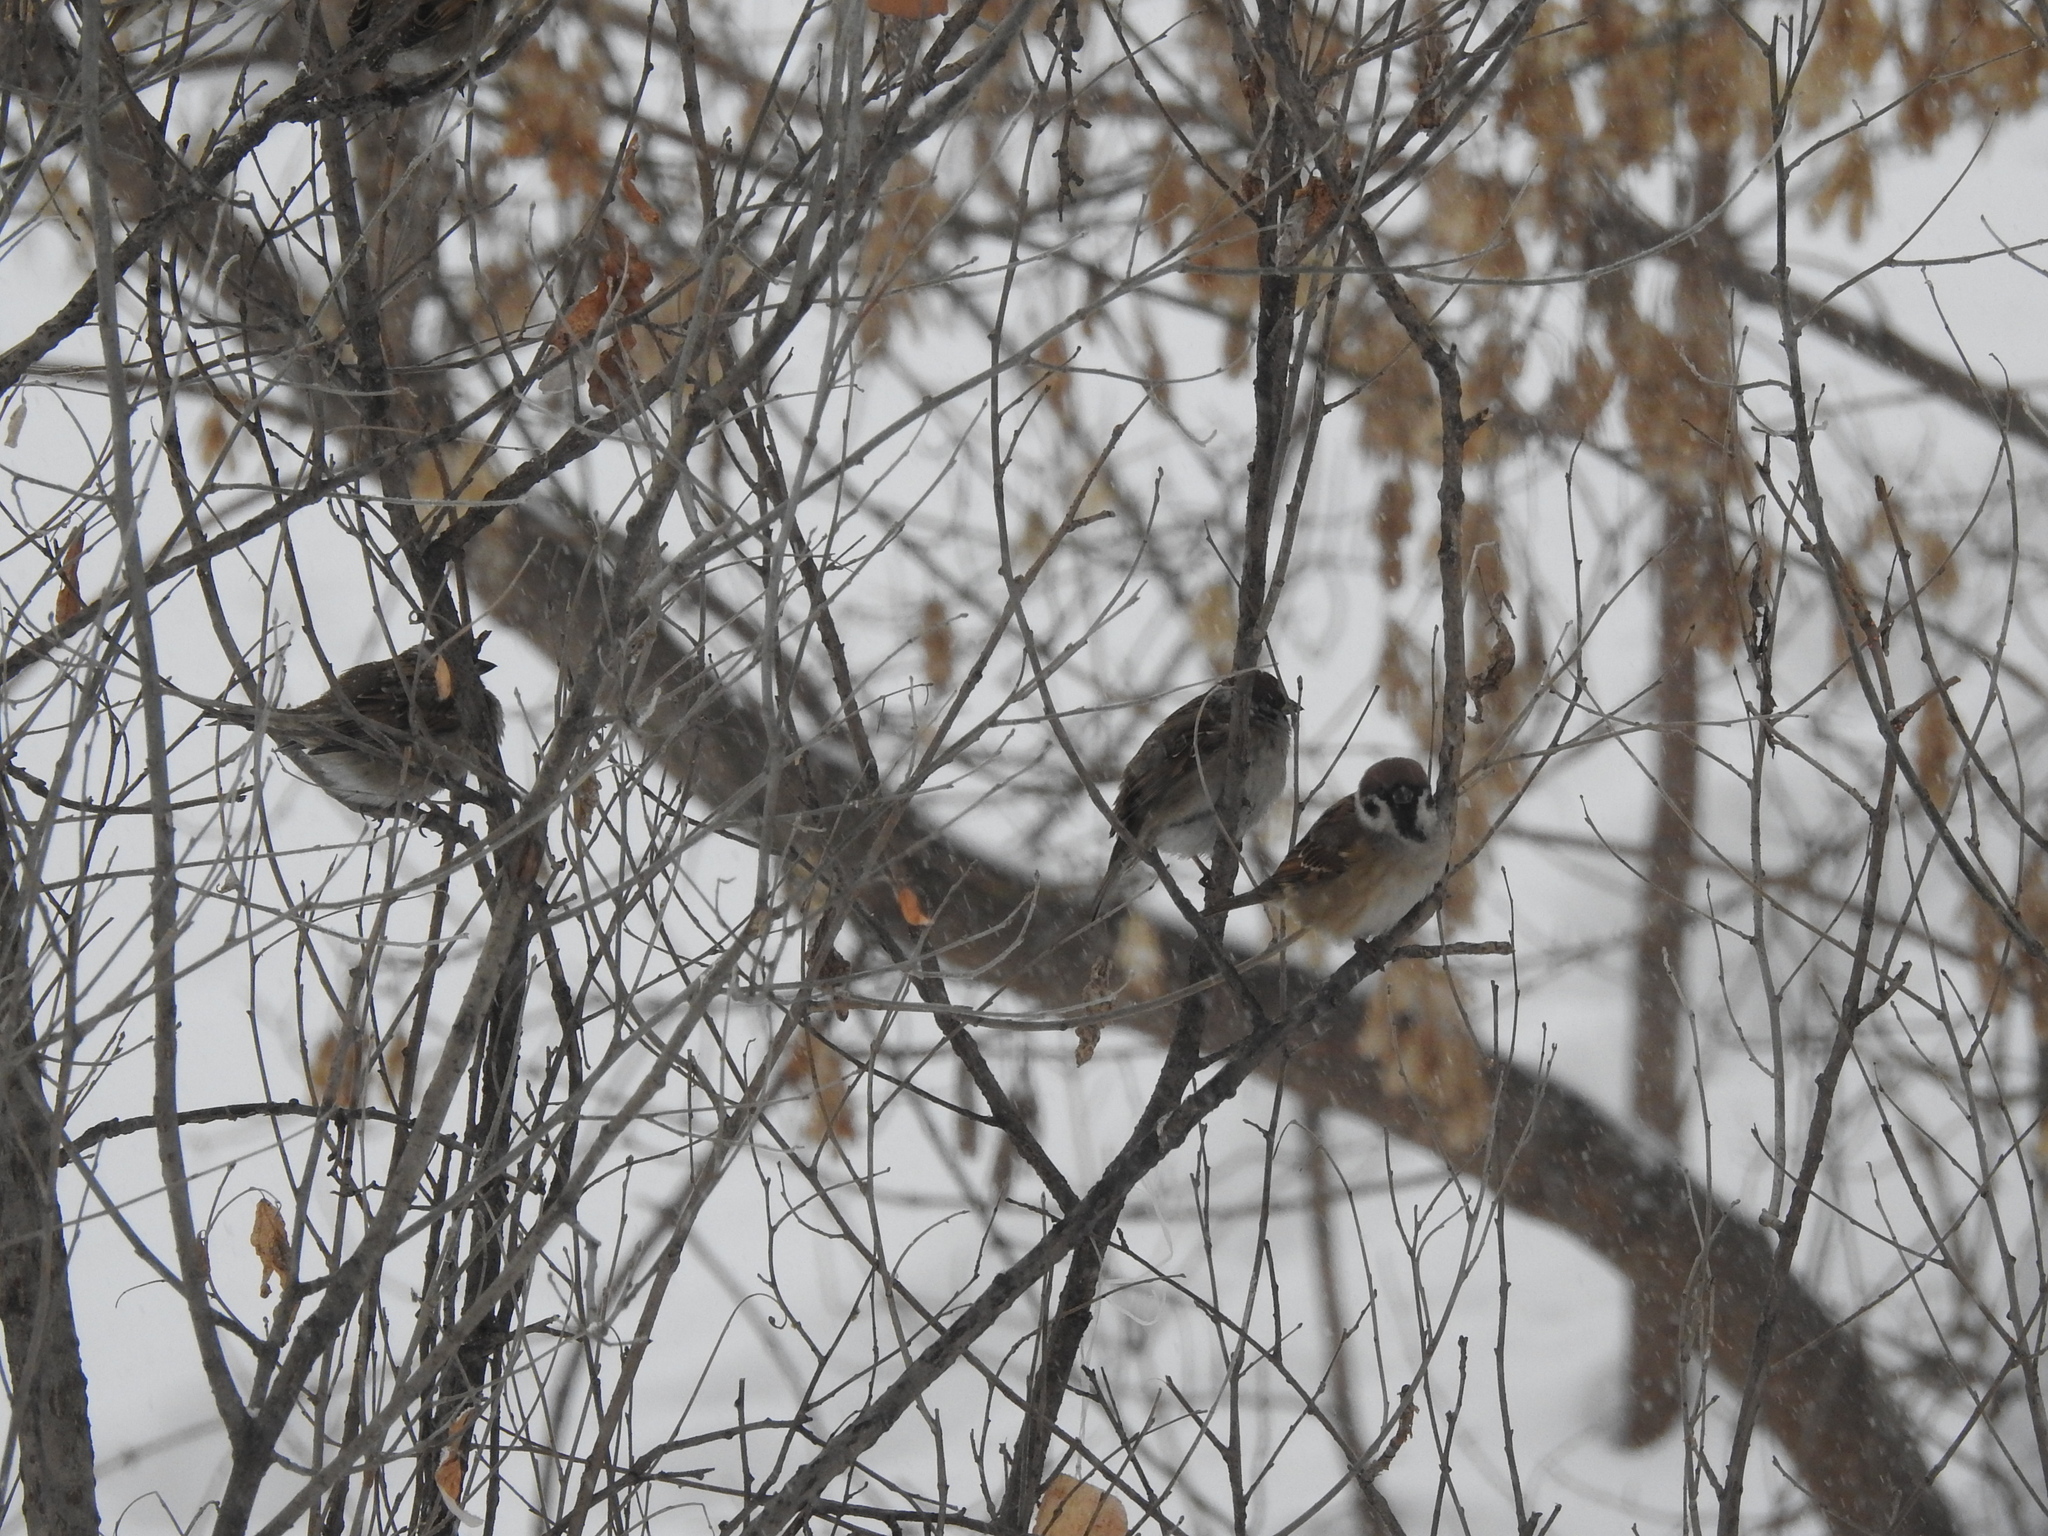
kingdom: Animalia
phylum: Chordata
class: Aves
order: Passeriformes
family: Passeridae
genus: Passer
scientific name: Passer montanus
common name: Eurasian tree sparrow
